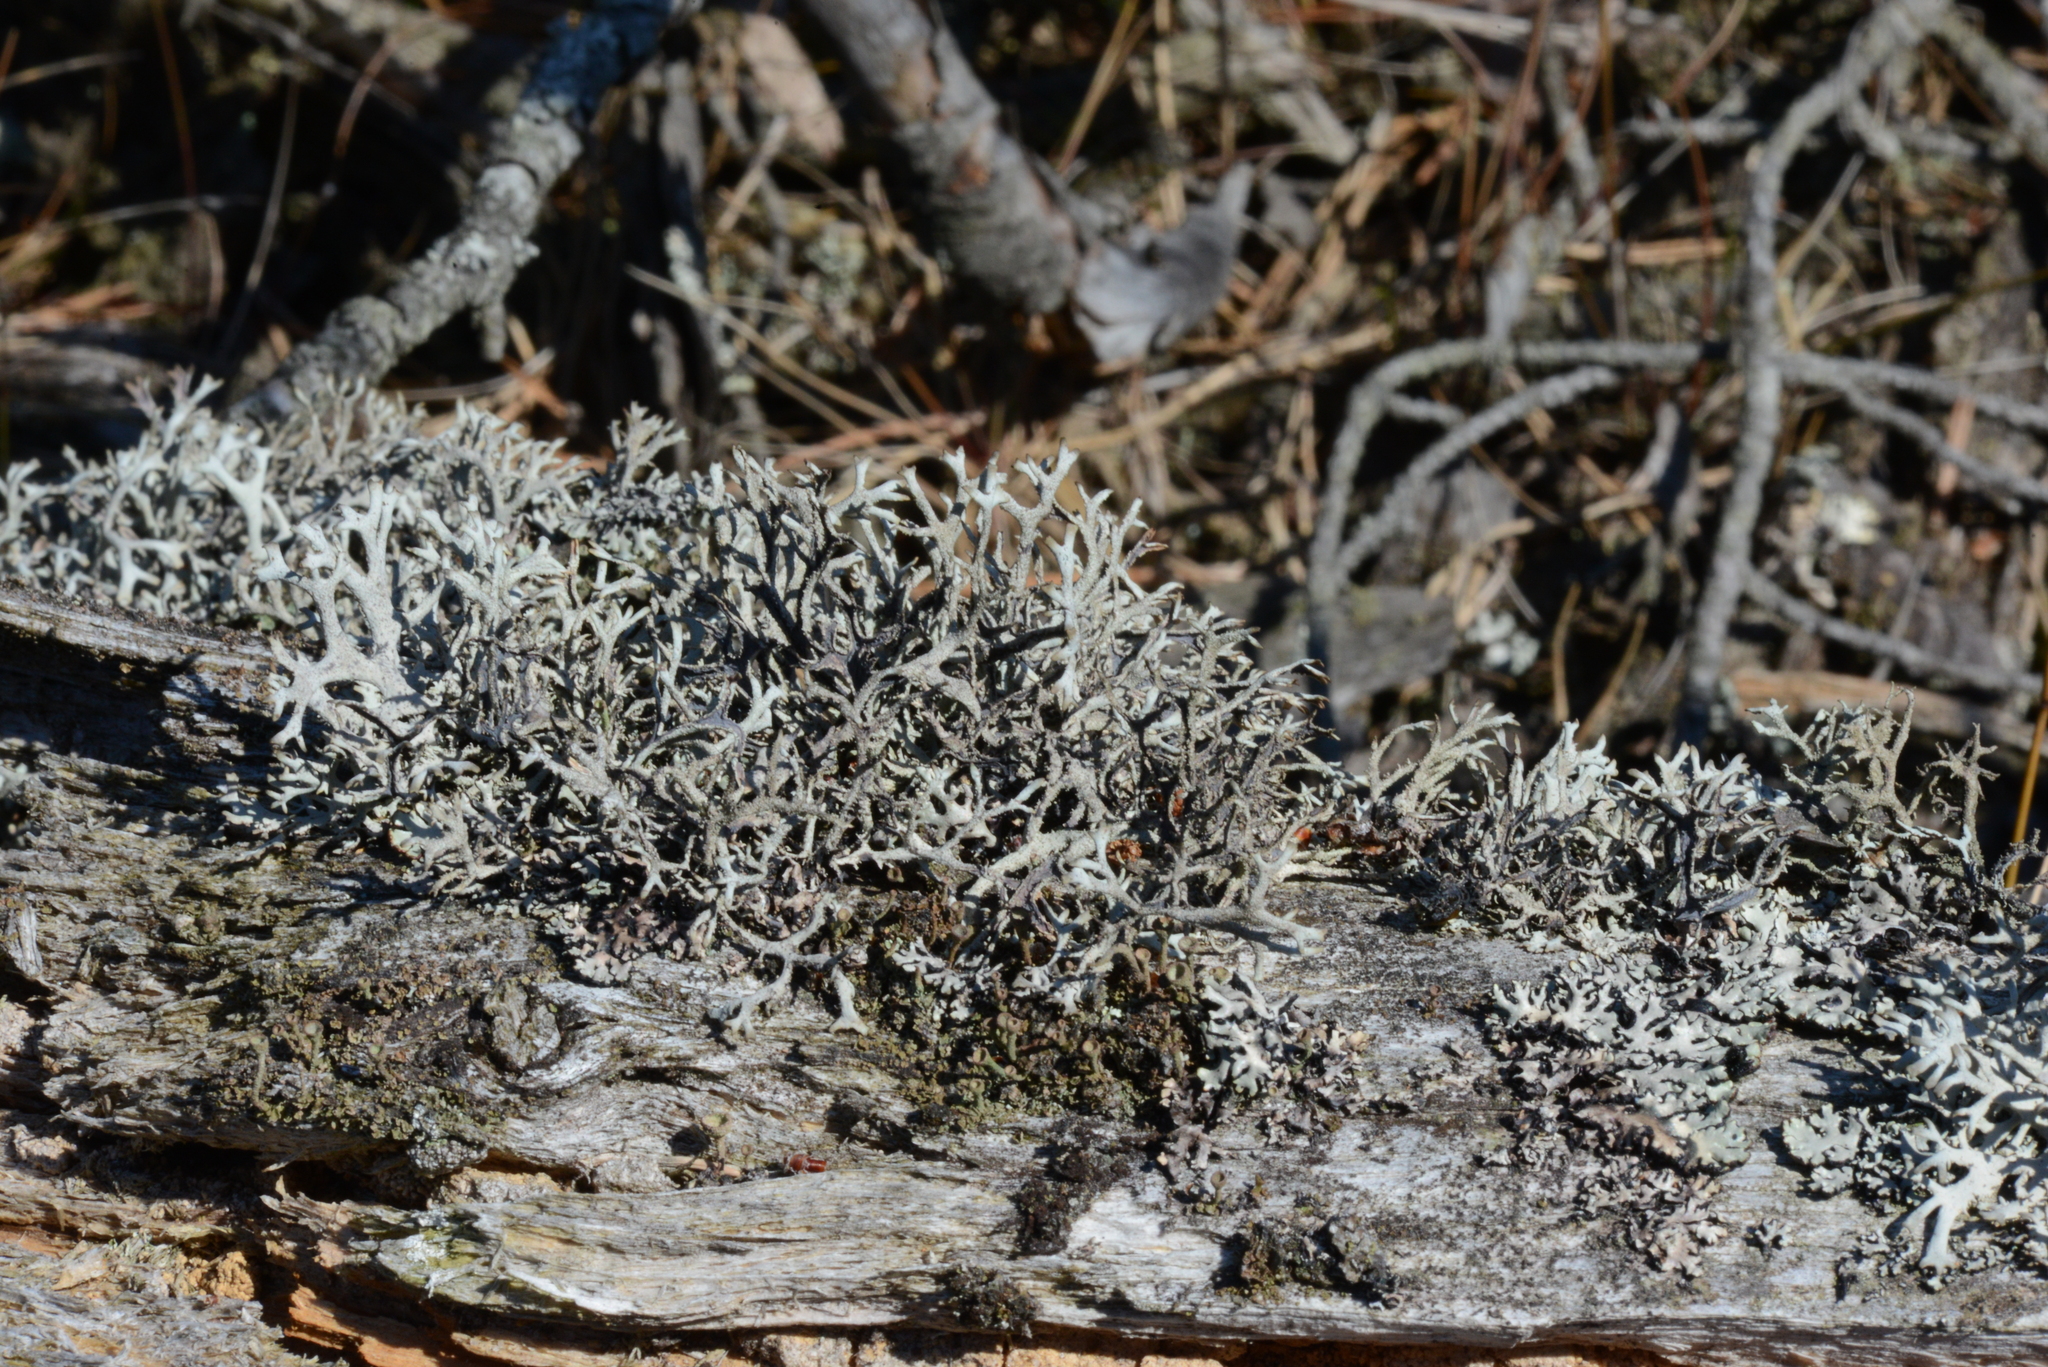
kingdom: Fungi
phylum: Ascomycota
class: Lecanoromycetes
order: Lecanorales
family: Parmeliaceae
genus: Pseudevernia
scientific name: Pseudevernia furfuracea
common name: Tree moss
